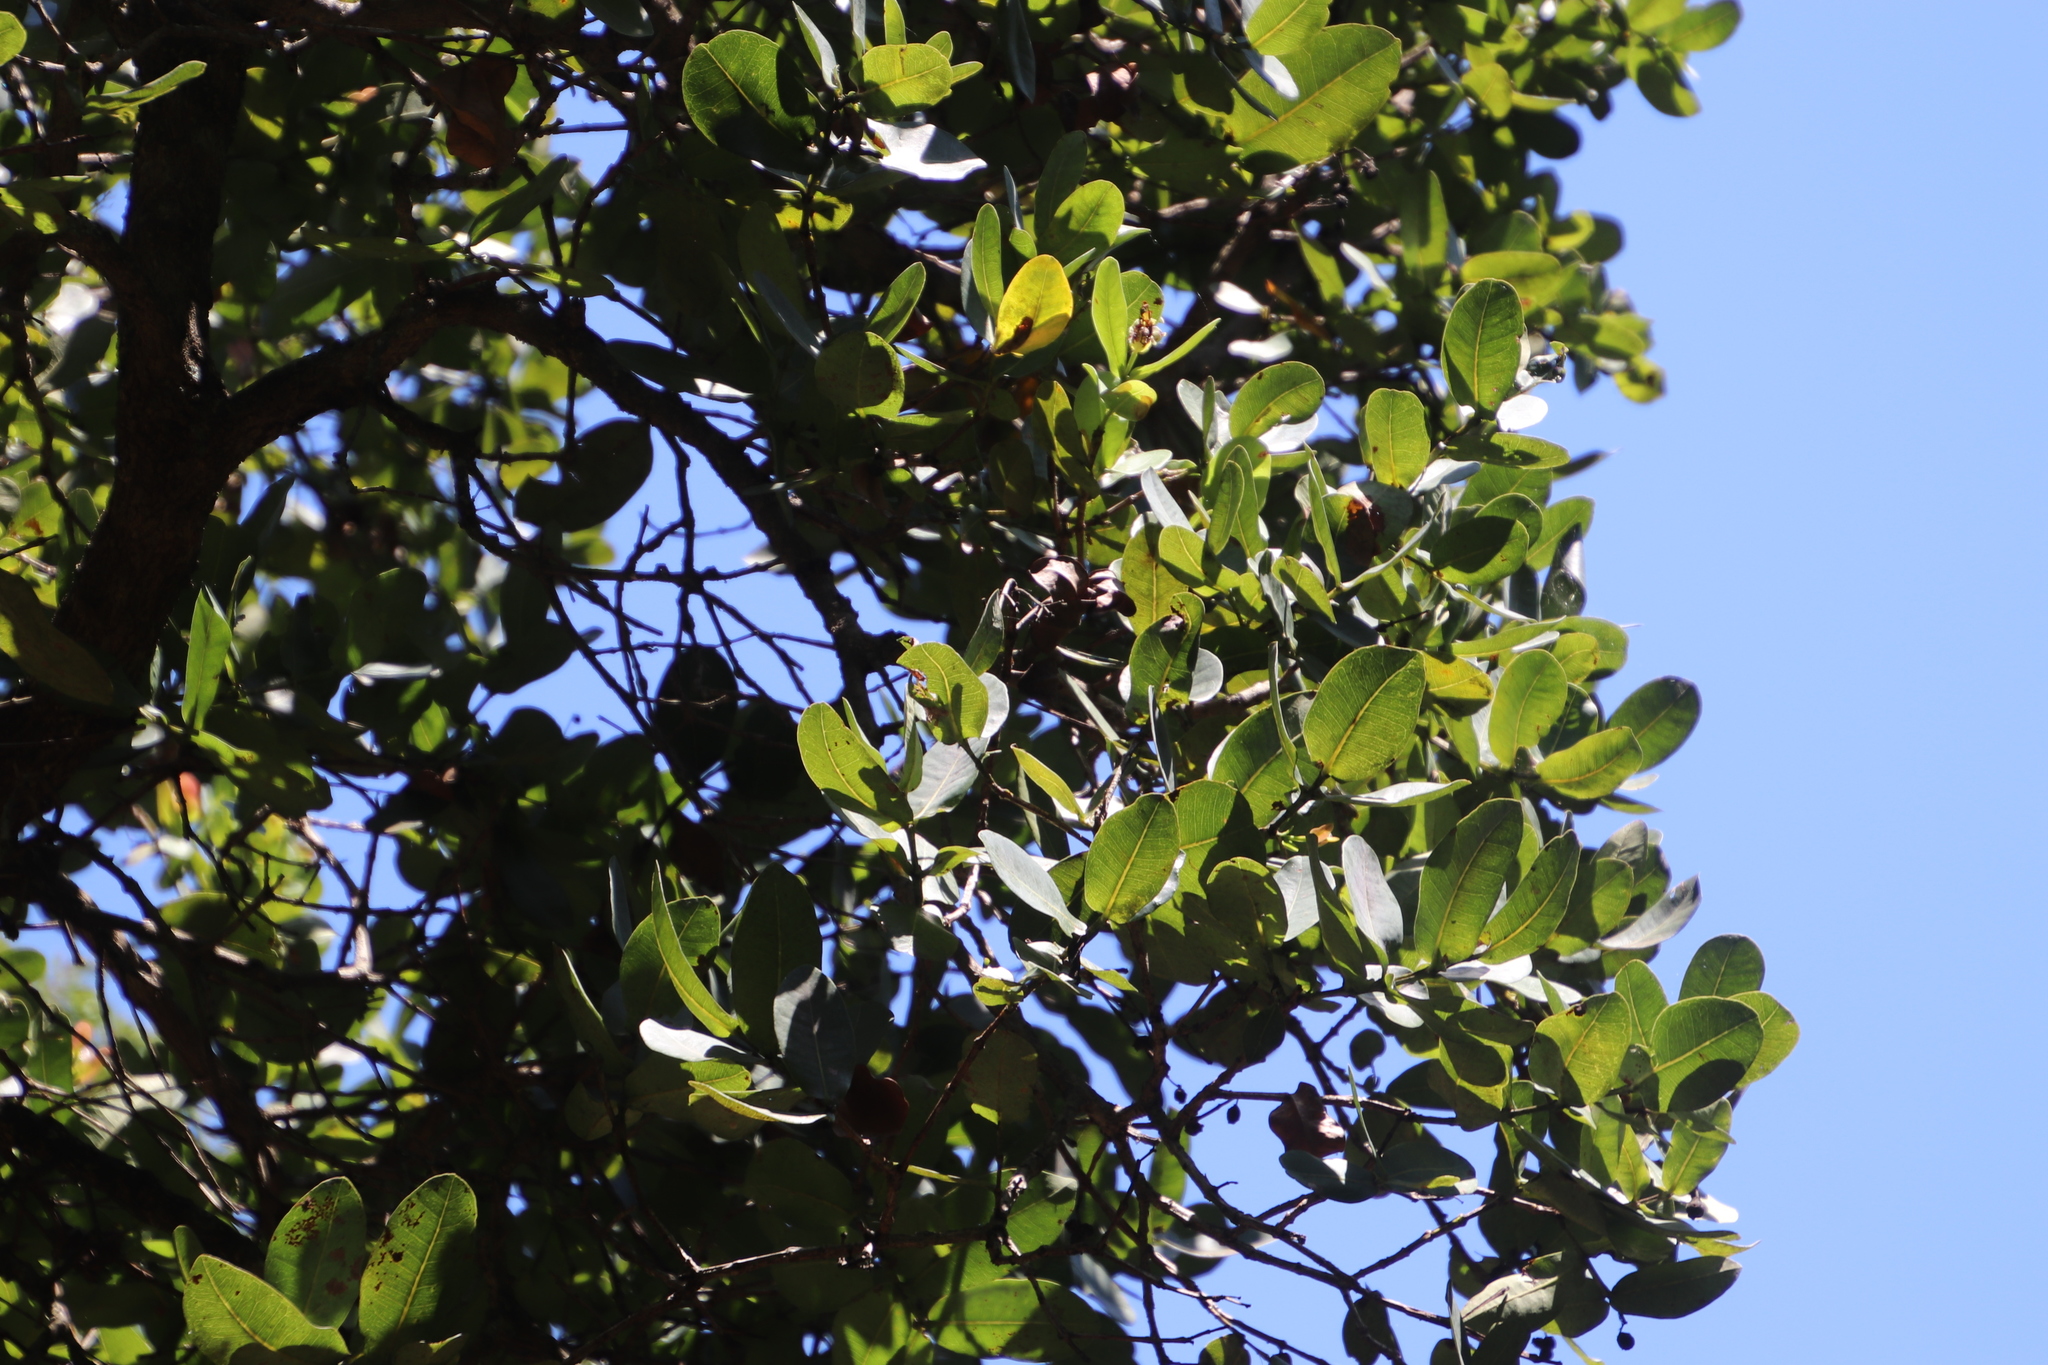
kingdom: Plantae
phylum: Tracheophyta
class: Magnoliopsida
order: Myrtales
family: Myrtaceae
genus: Syzygium
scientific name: Syzygium cordatum
